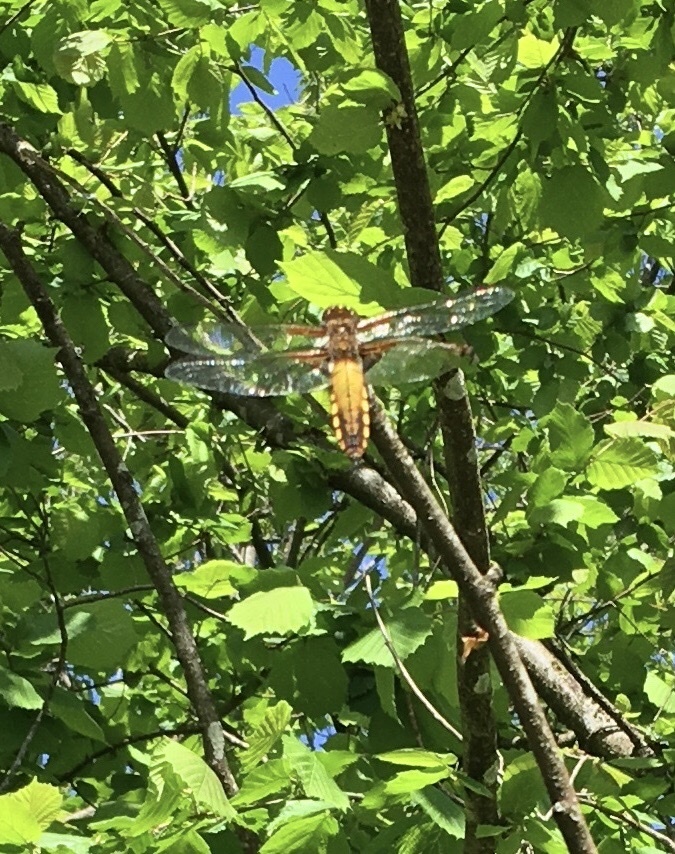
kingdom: Animalia
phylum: Arthropoda
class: Insecta
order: Odonata
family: Libellulidae
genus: Libellula
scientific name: Libellula depressa
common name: Broad-bodied chaser
